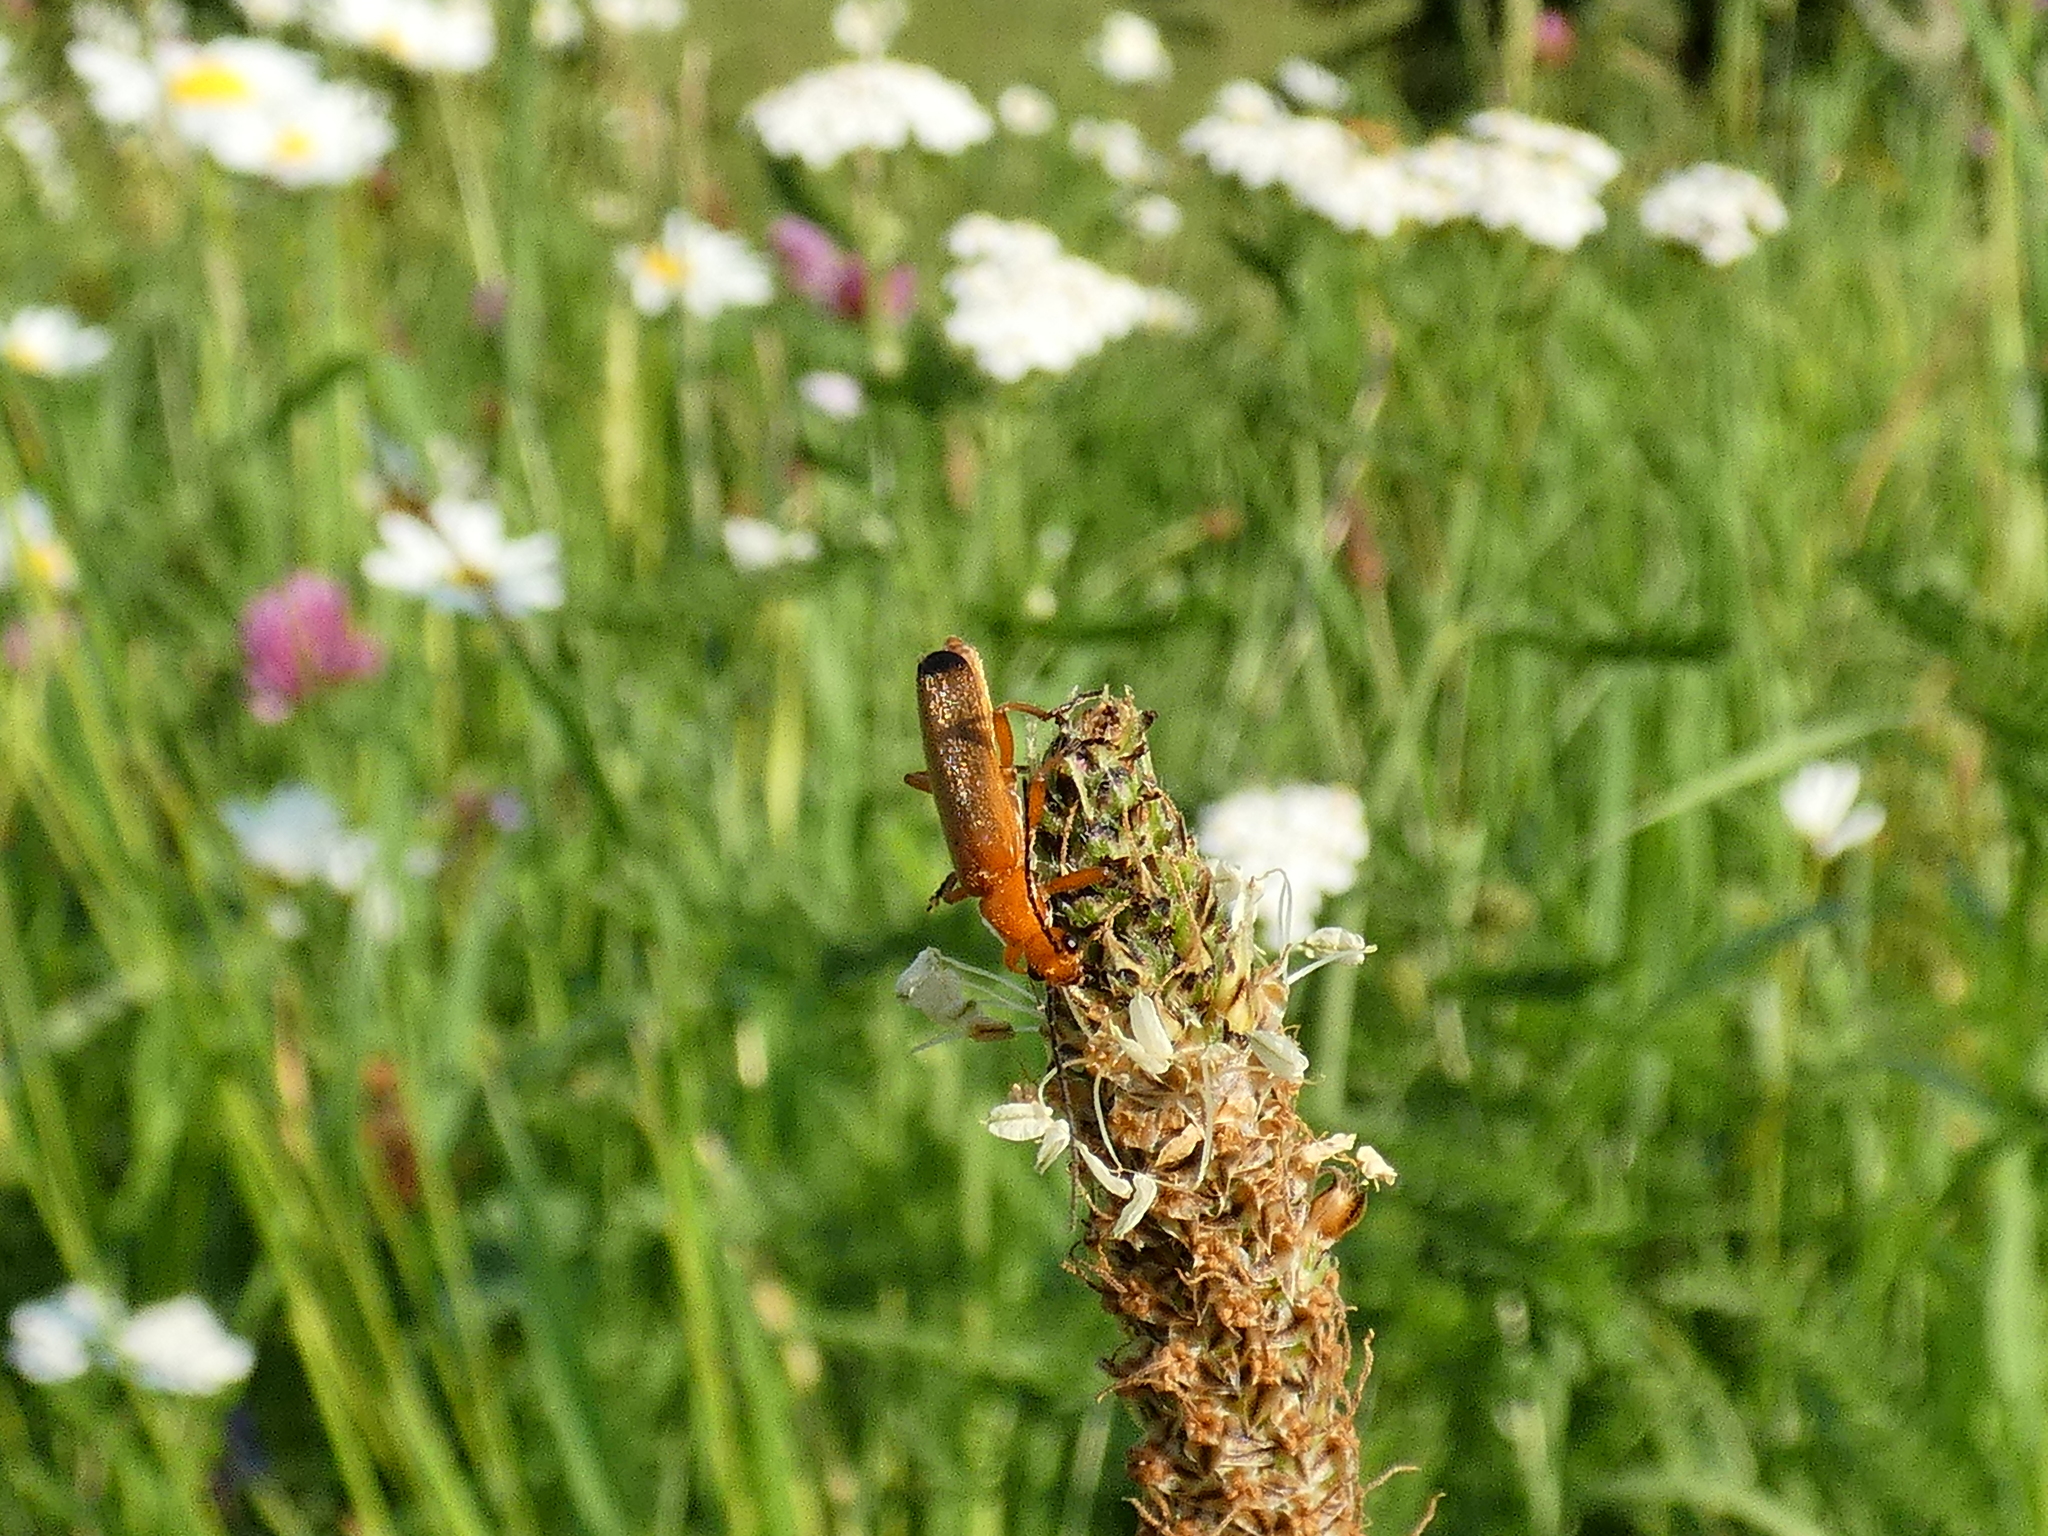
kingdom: Animalia
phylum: Arthropoda
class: Insecta
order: Coleoptera
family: Cantharidae
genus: Rhagonycha
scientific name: Rhagonycha fulva
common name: Common red soldier beetle
